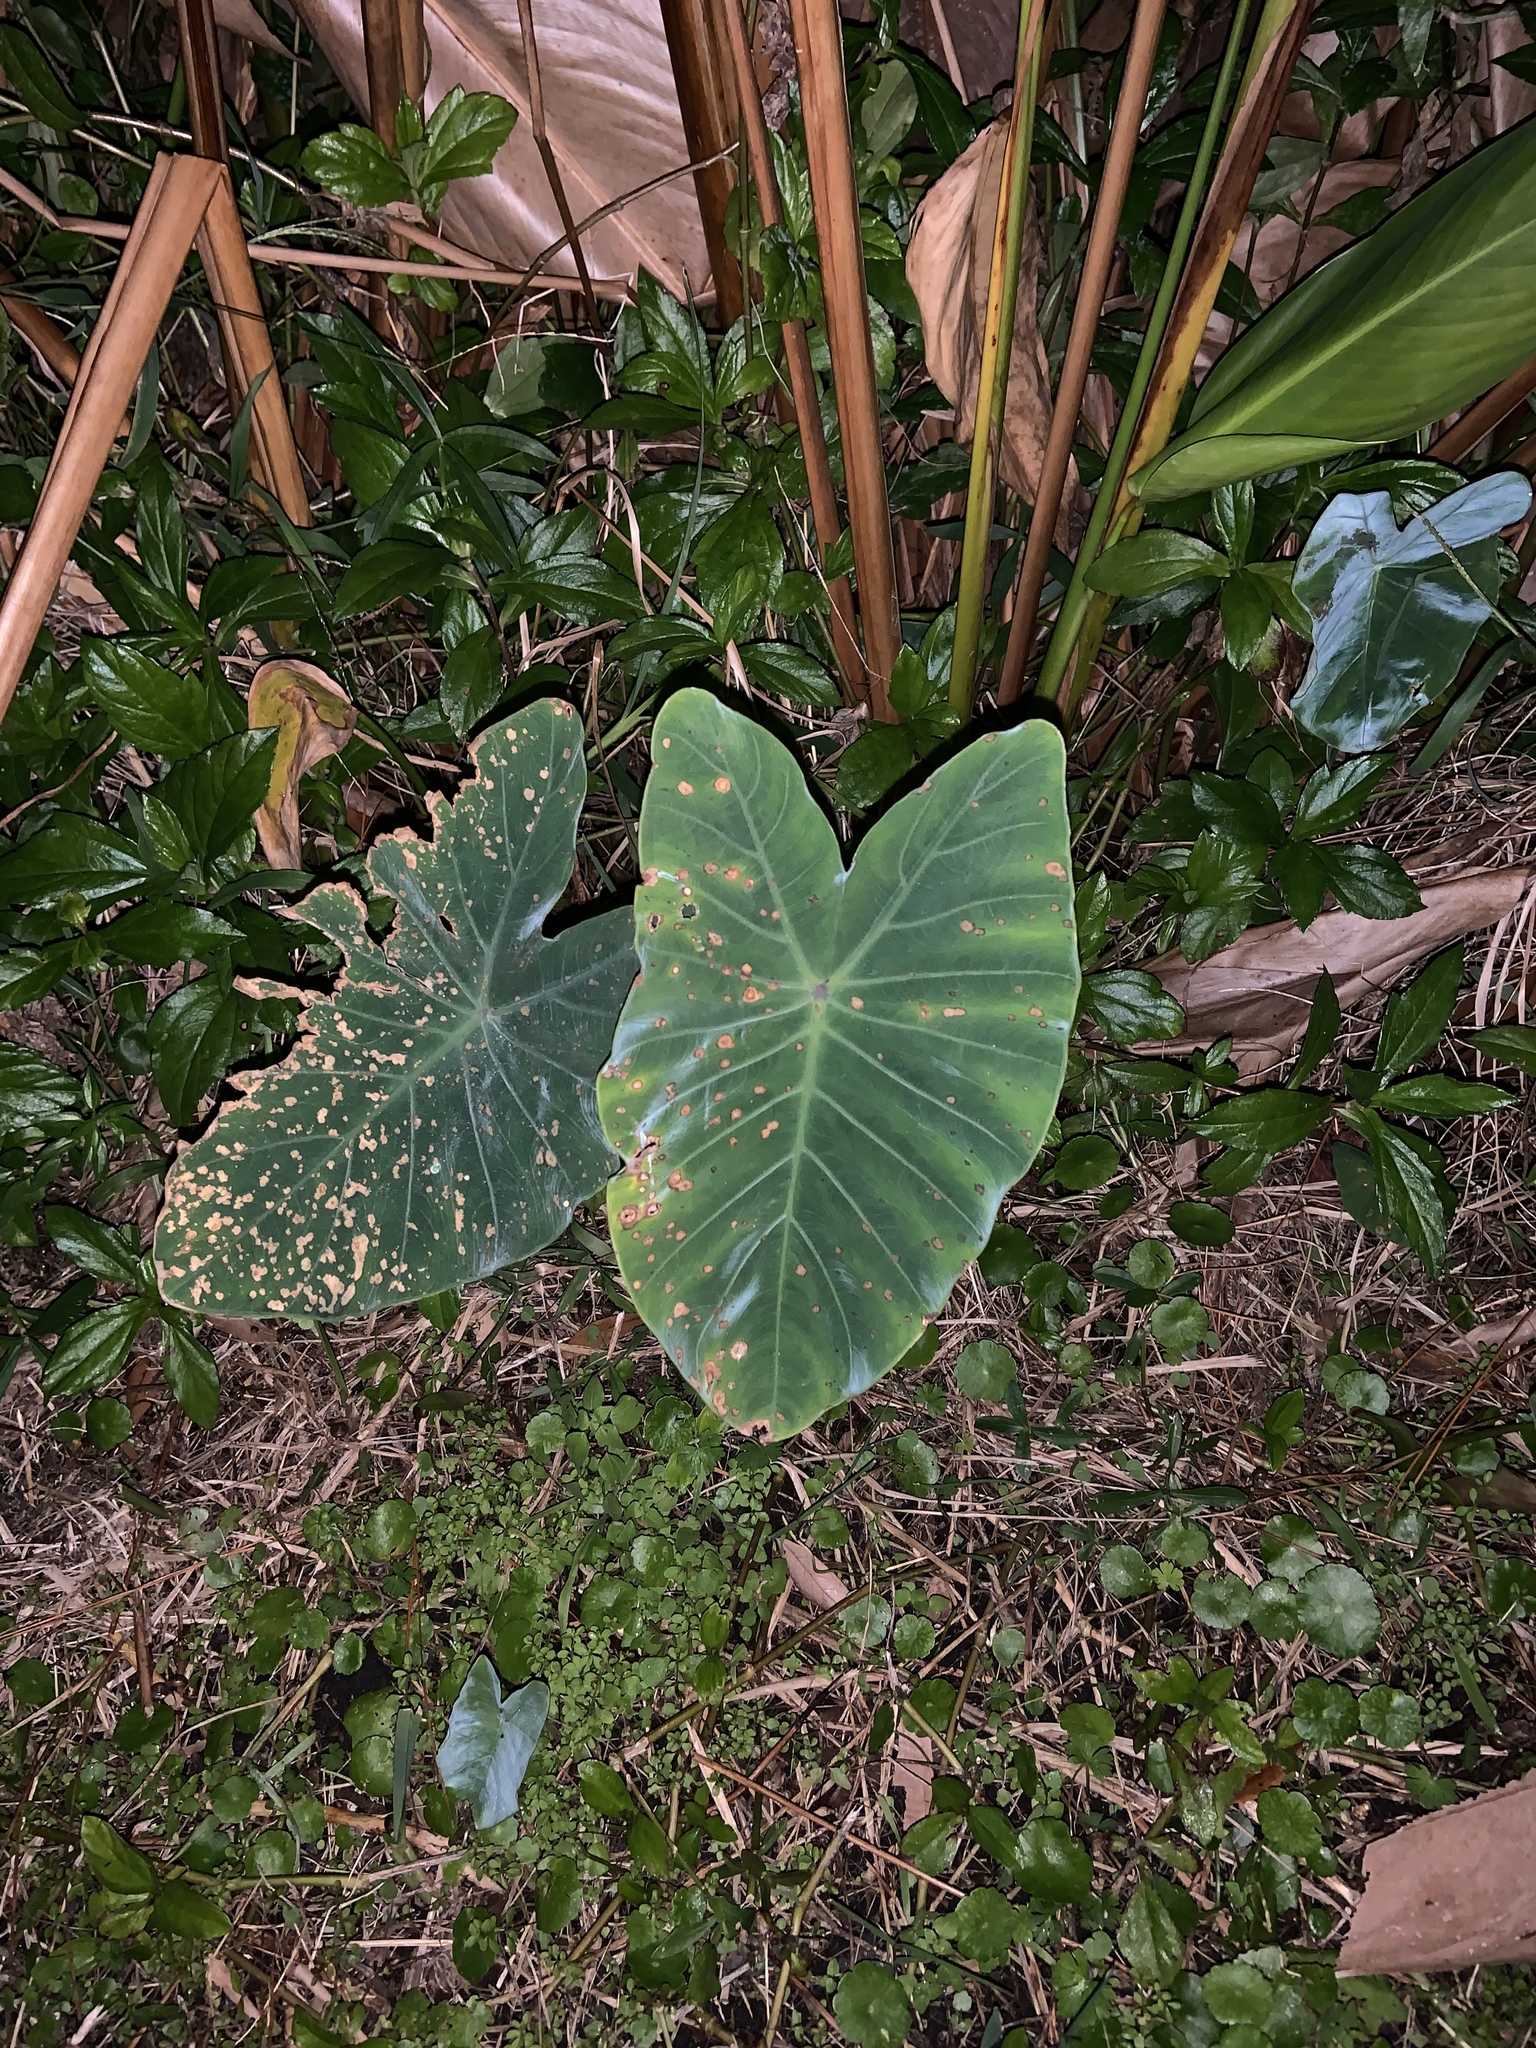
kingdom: Plantae
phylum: Tracheophyta
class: Liliopsida
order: Alismatales
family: Araceae
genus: Colocasia
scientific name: Colocasia esculenta
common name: Taro
